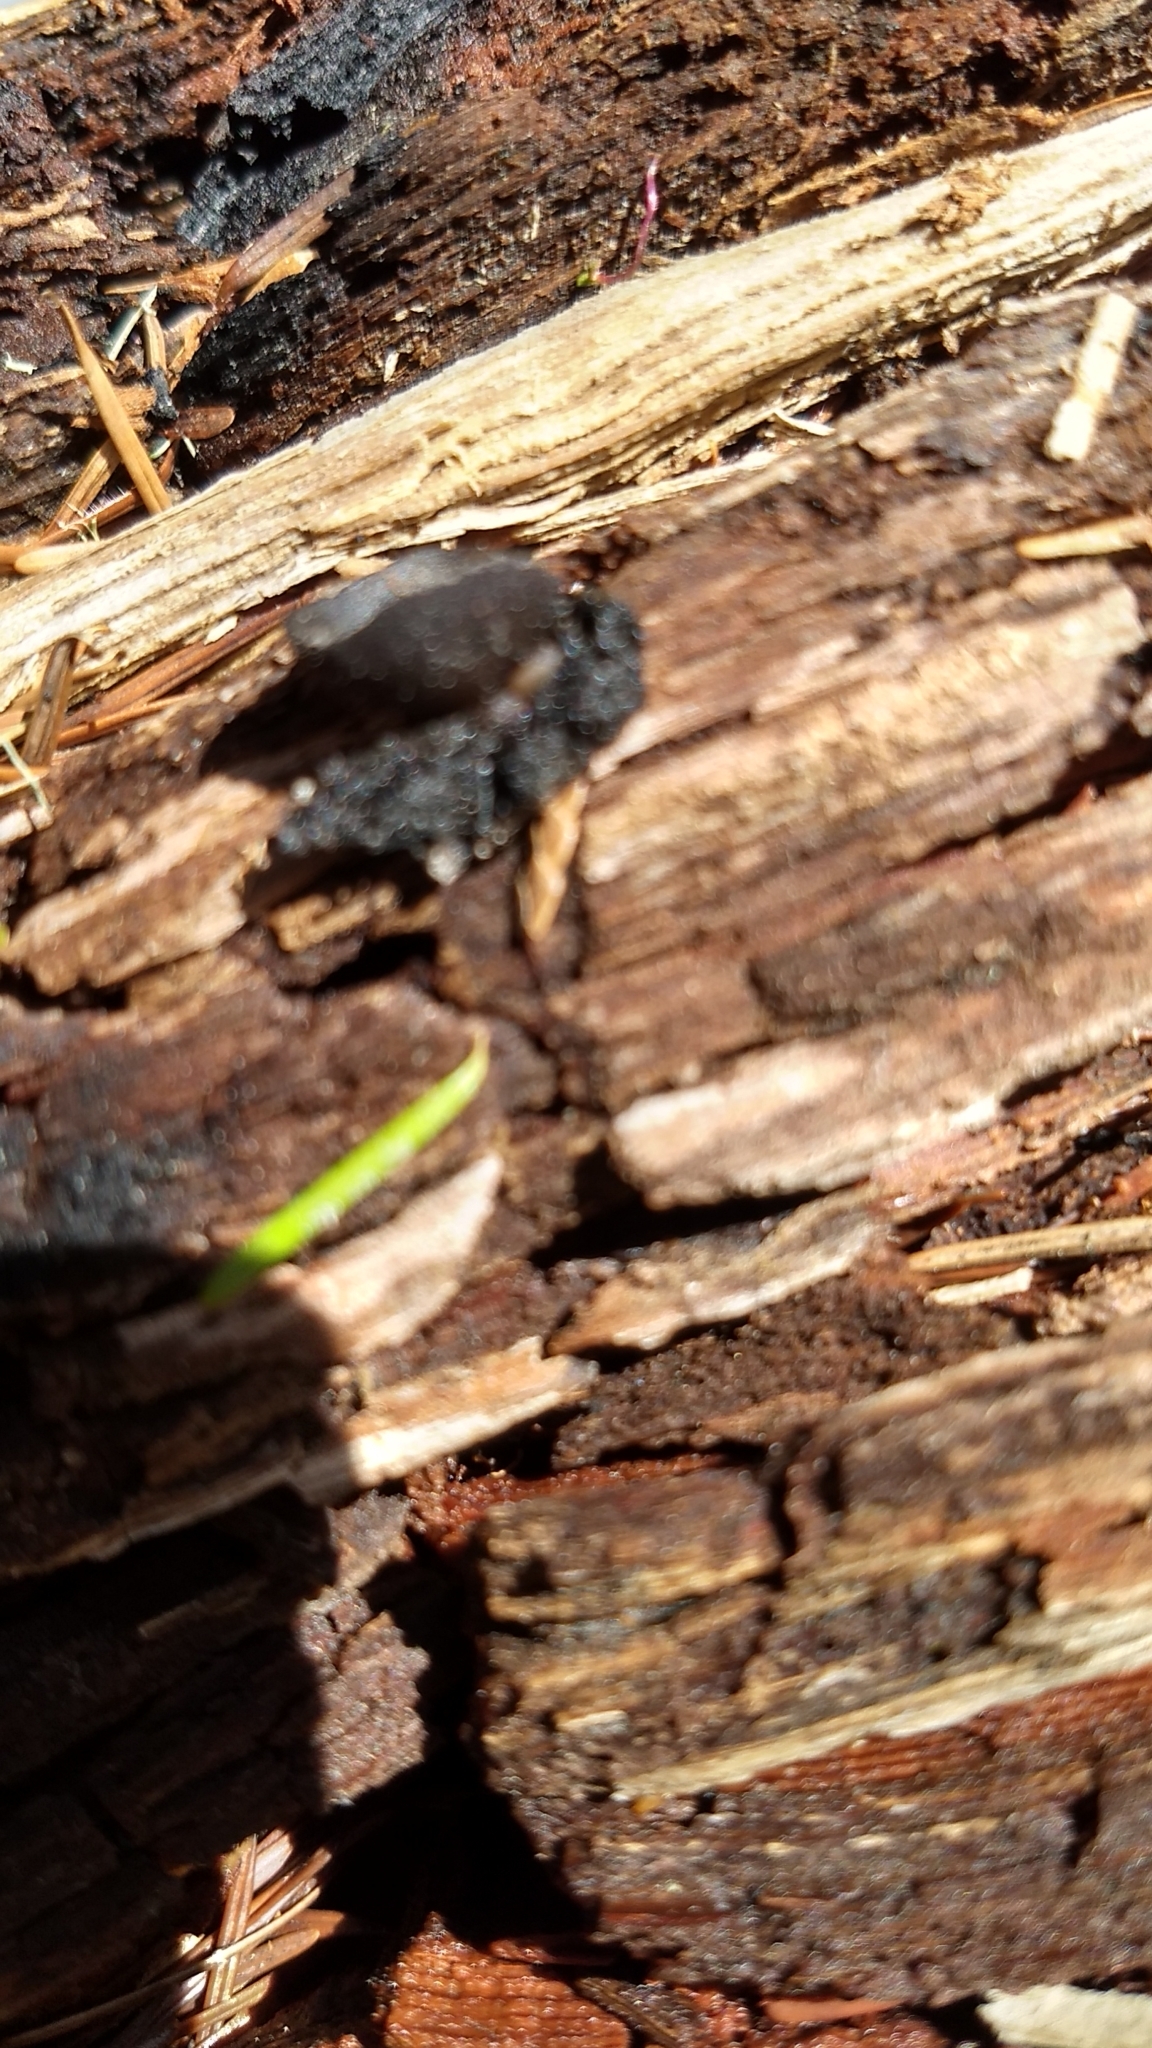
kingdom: Fungi
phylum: Ascomycota
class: Pezizomycetes
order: Pezizales
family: Sarcosomataceae
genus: Pseudoplectania
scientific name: Pseudoplectania nigrella
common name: Ebony cup
